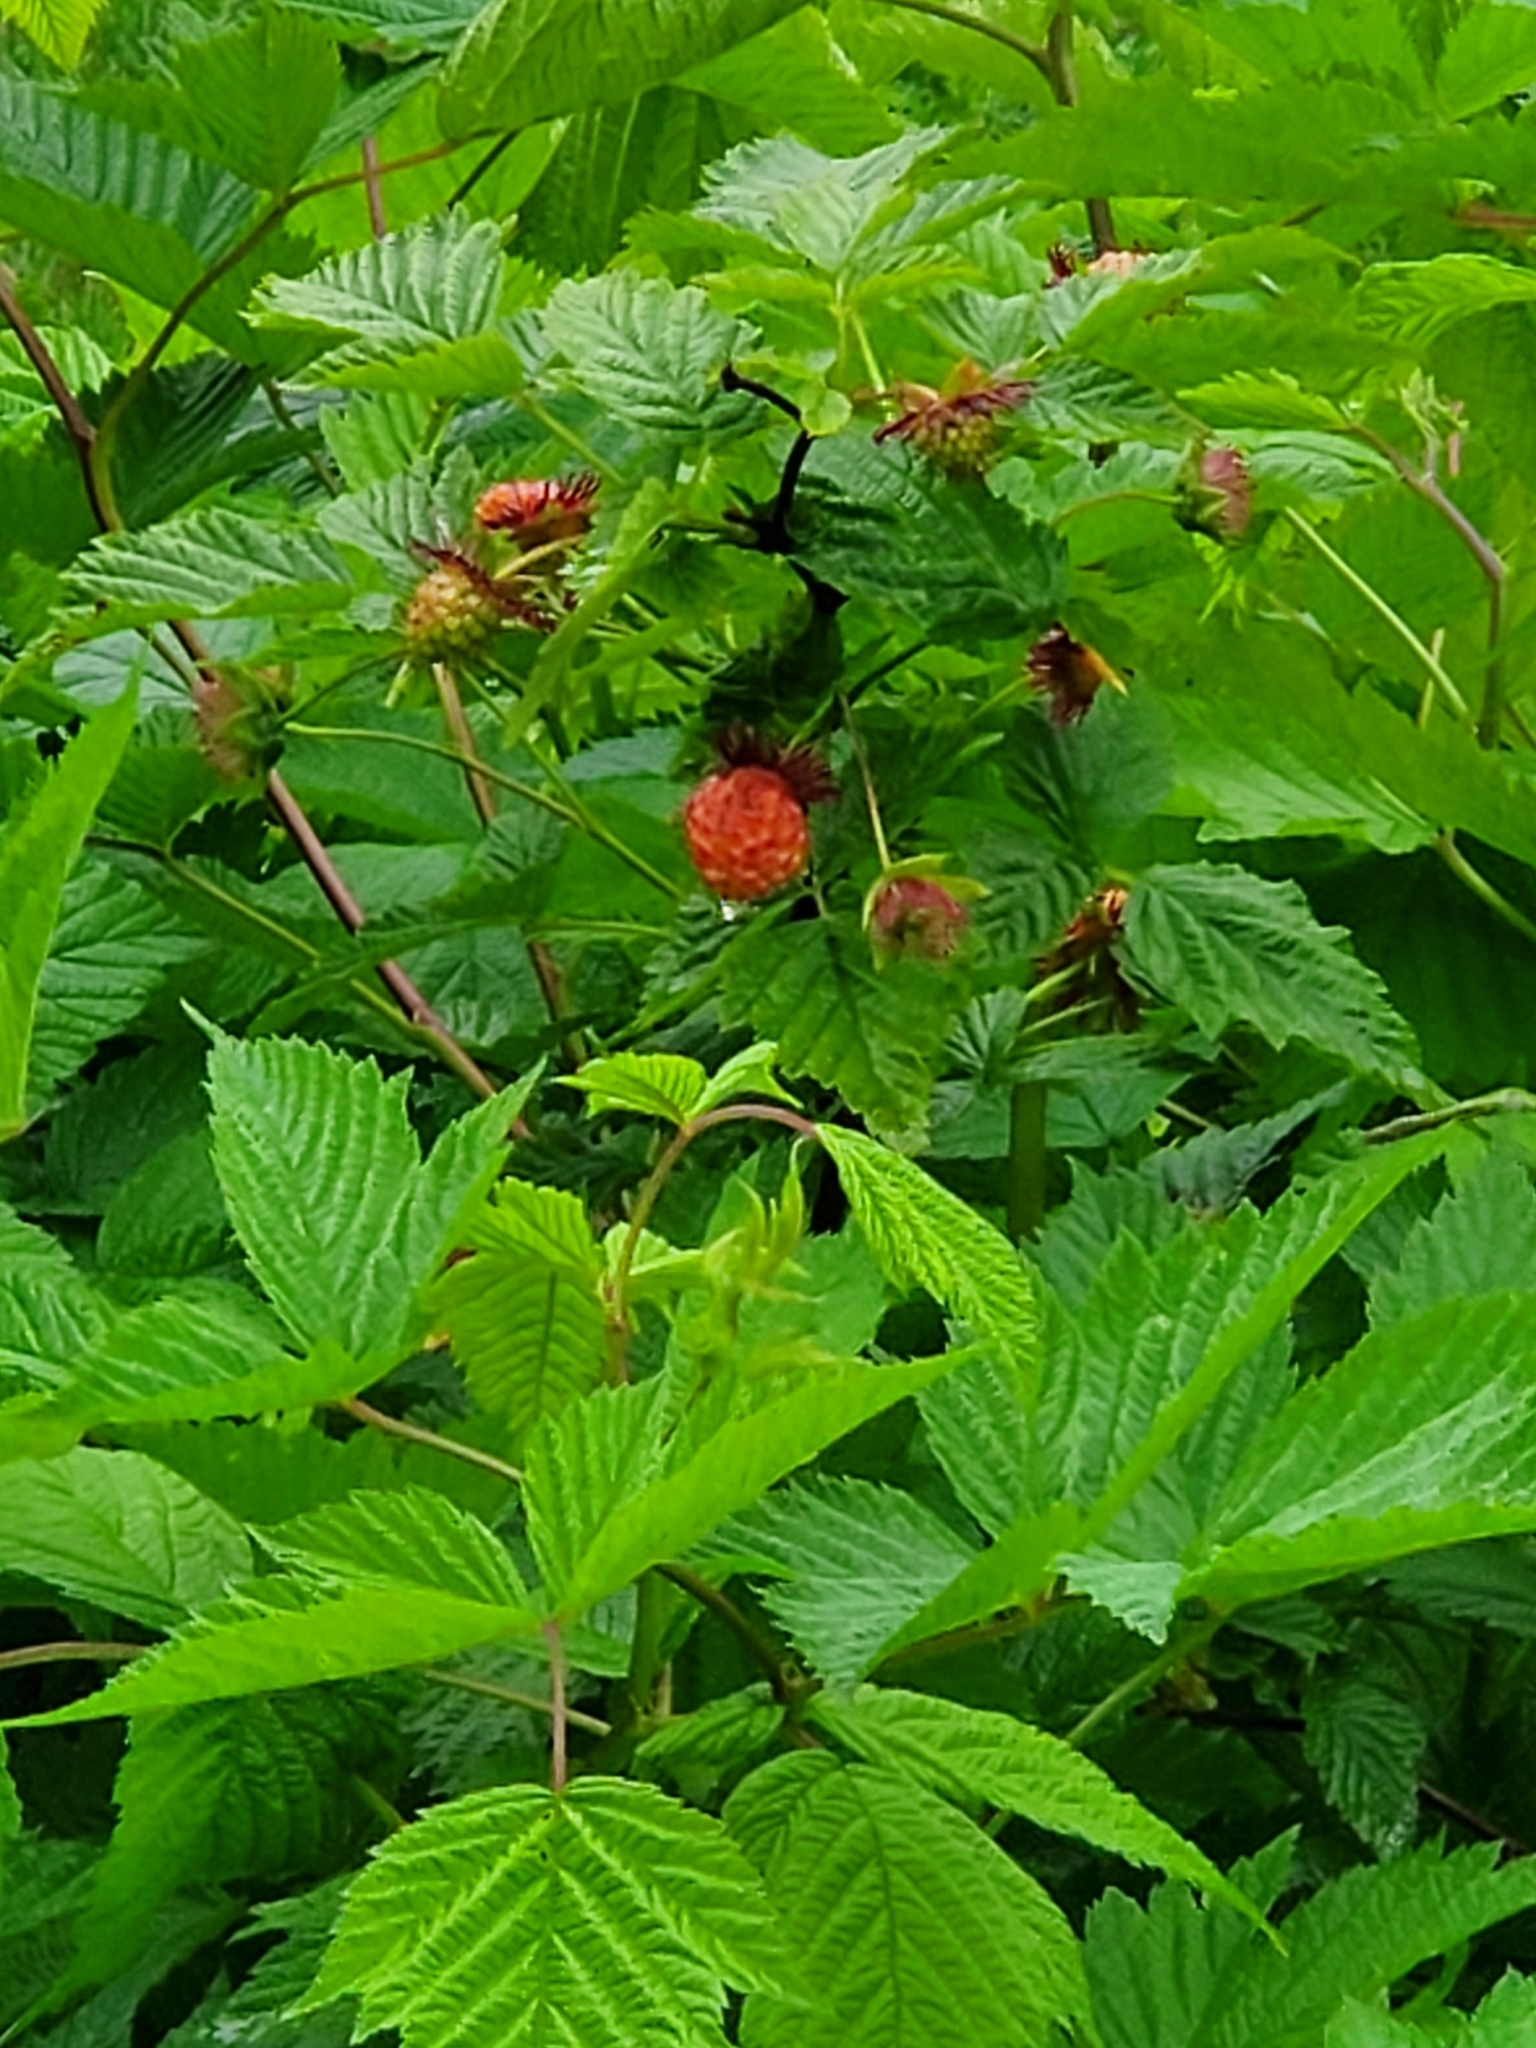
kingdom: Plantae
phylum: Tracheophyta
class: Magnoliopsida
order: Rosales
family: Rosaceae
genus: Rubus
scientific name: Rubus spectabilis
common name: Salmonberry
